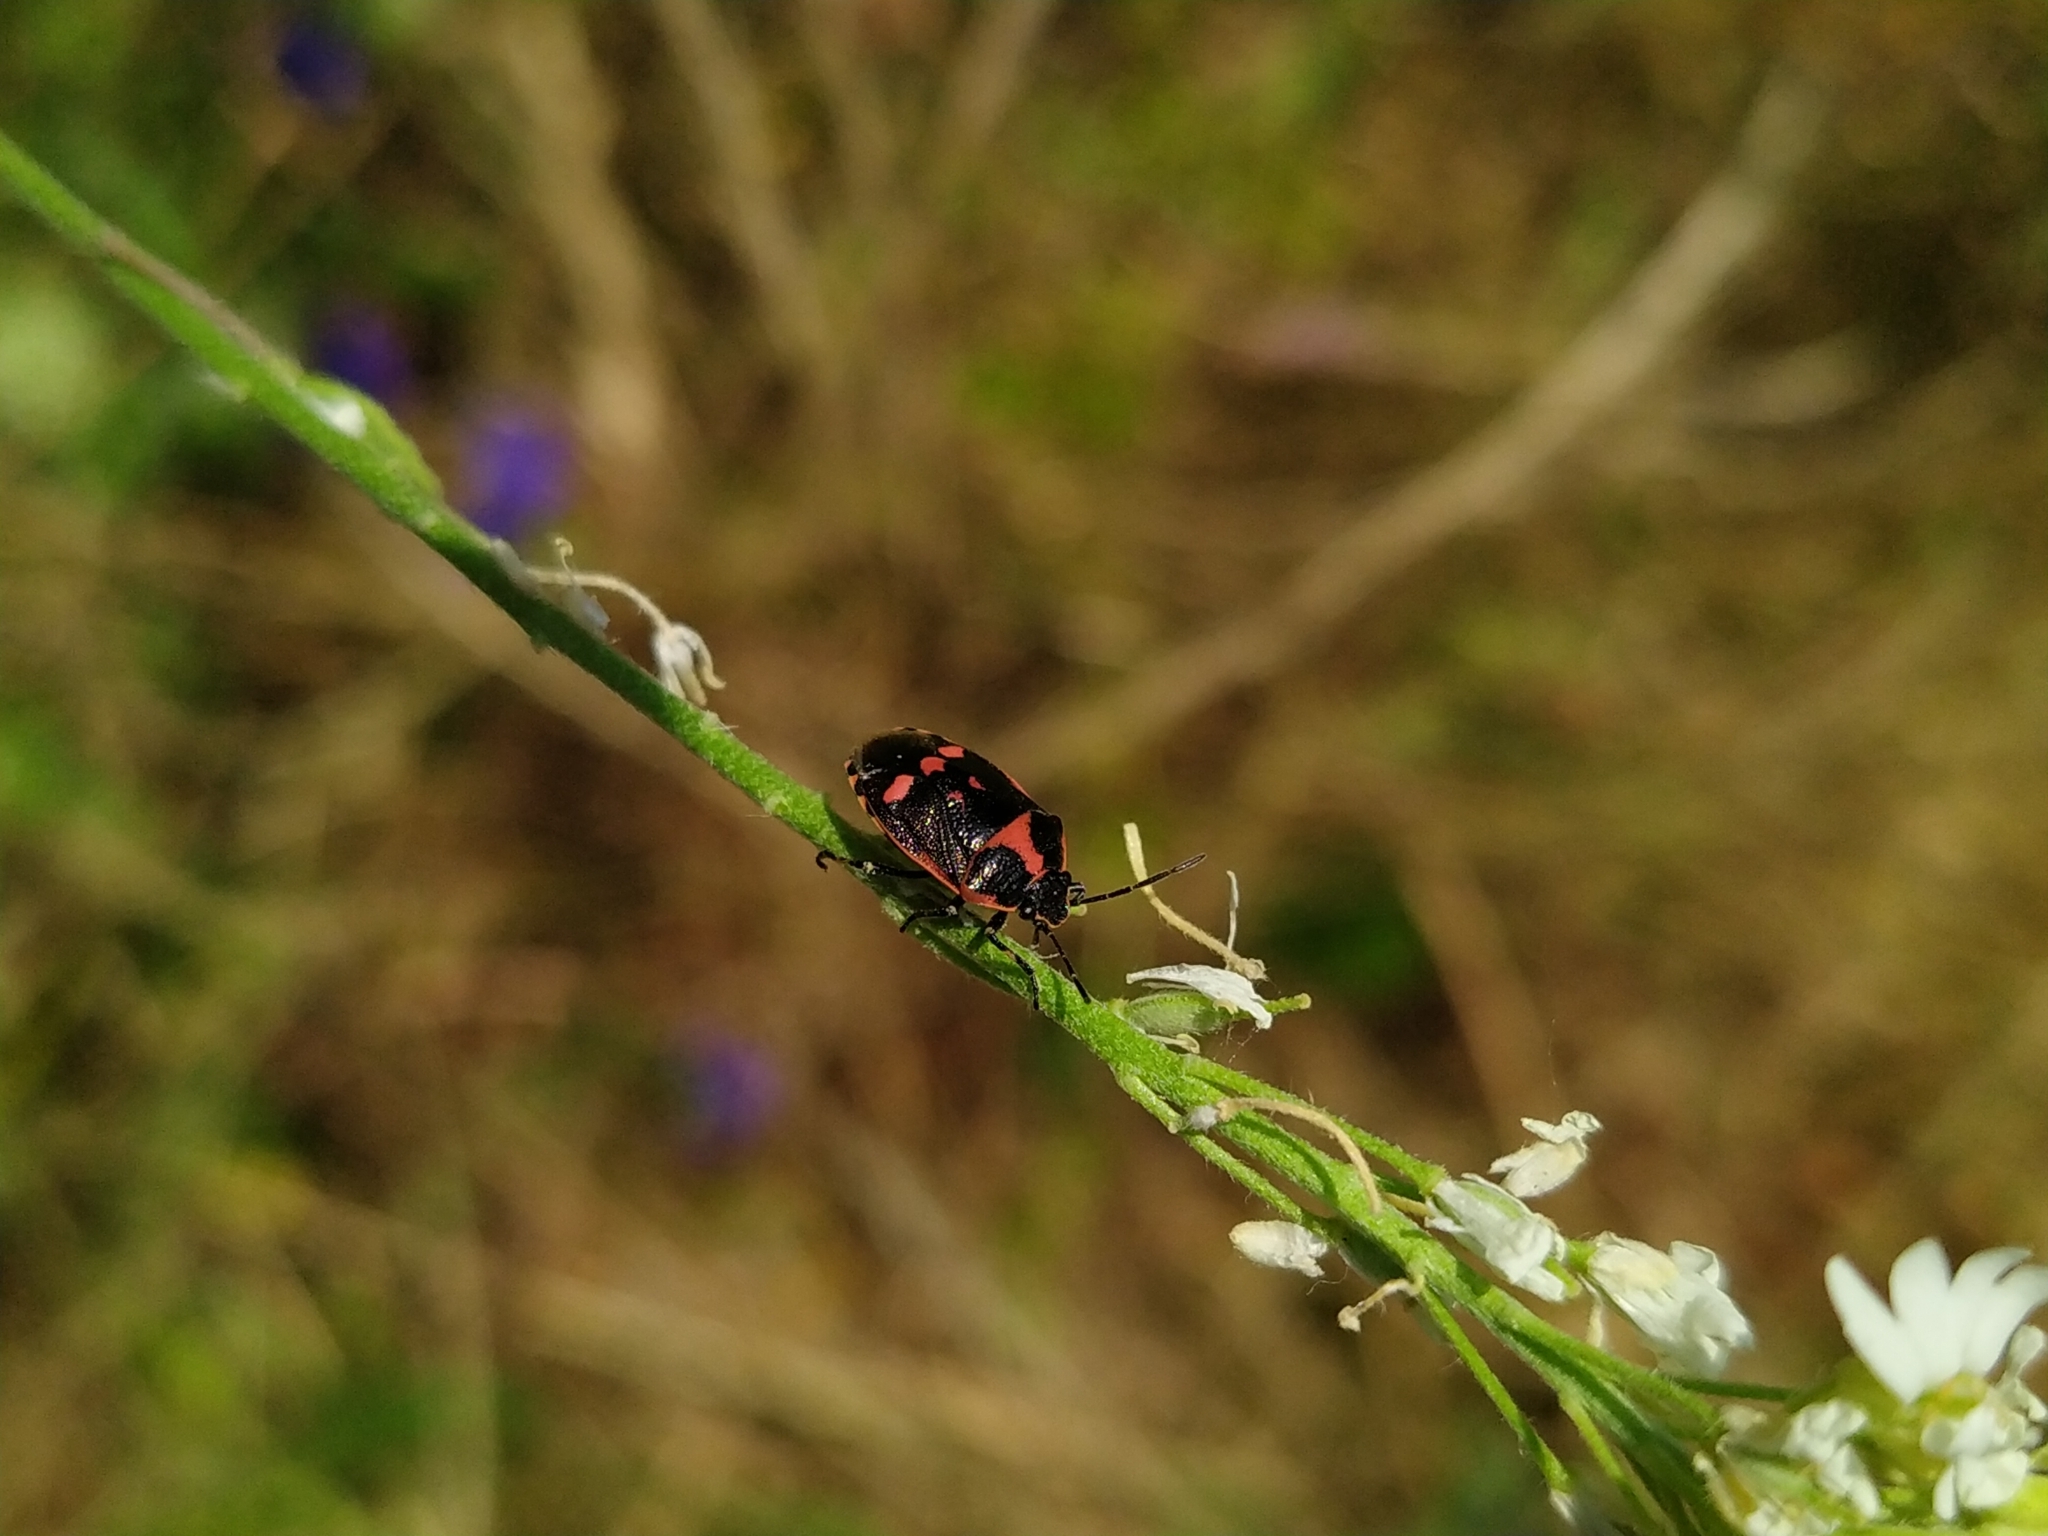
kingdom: Animalia
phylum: Arthropoda
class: Insecta
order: Hemiptera
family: Pentatomidae
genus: Eurydema
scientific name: Eurydema oleracea
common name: Cabbage bug
